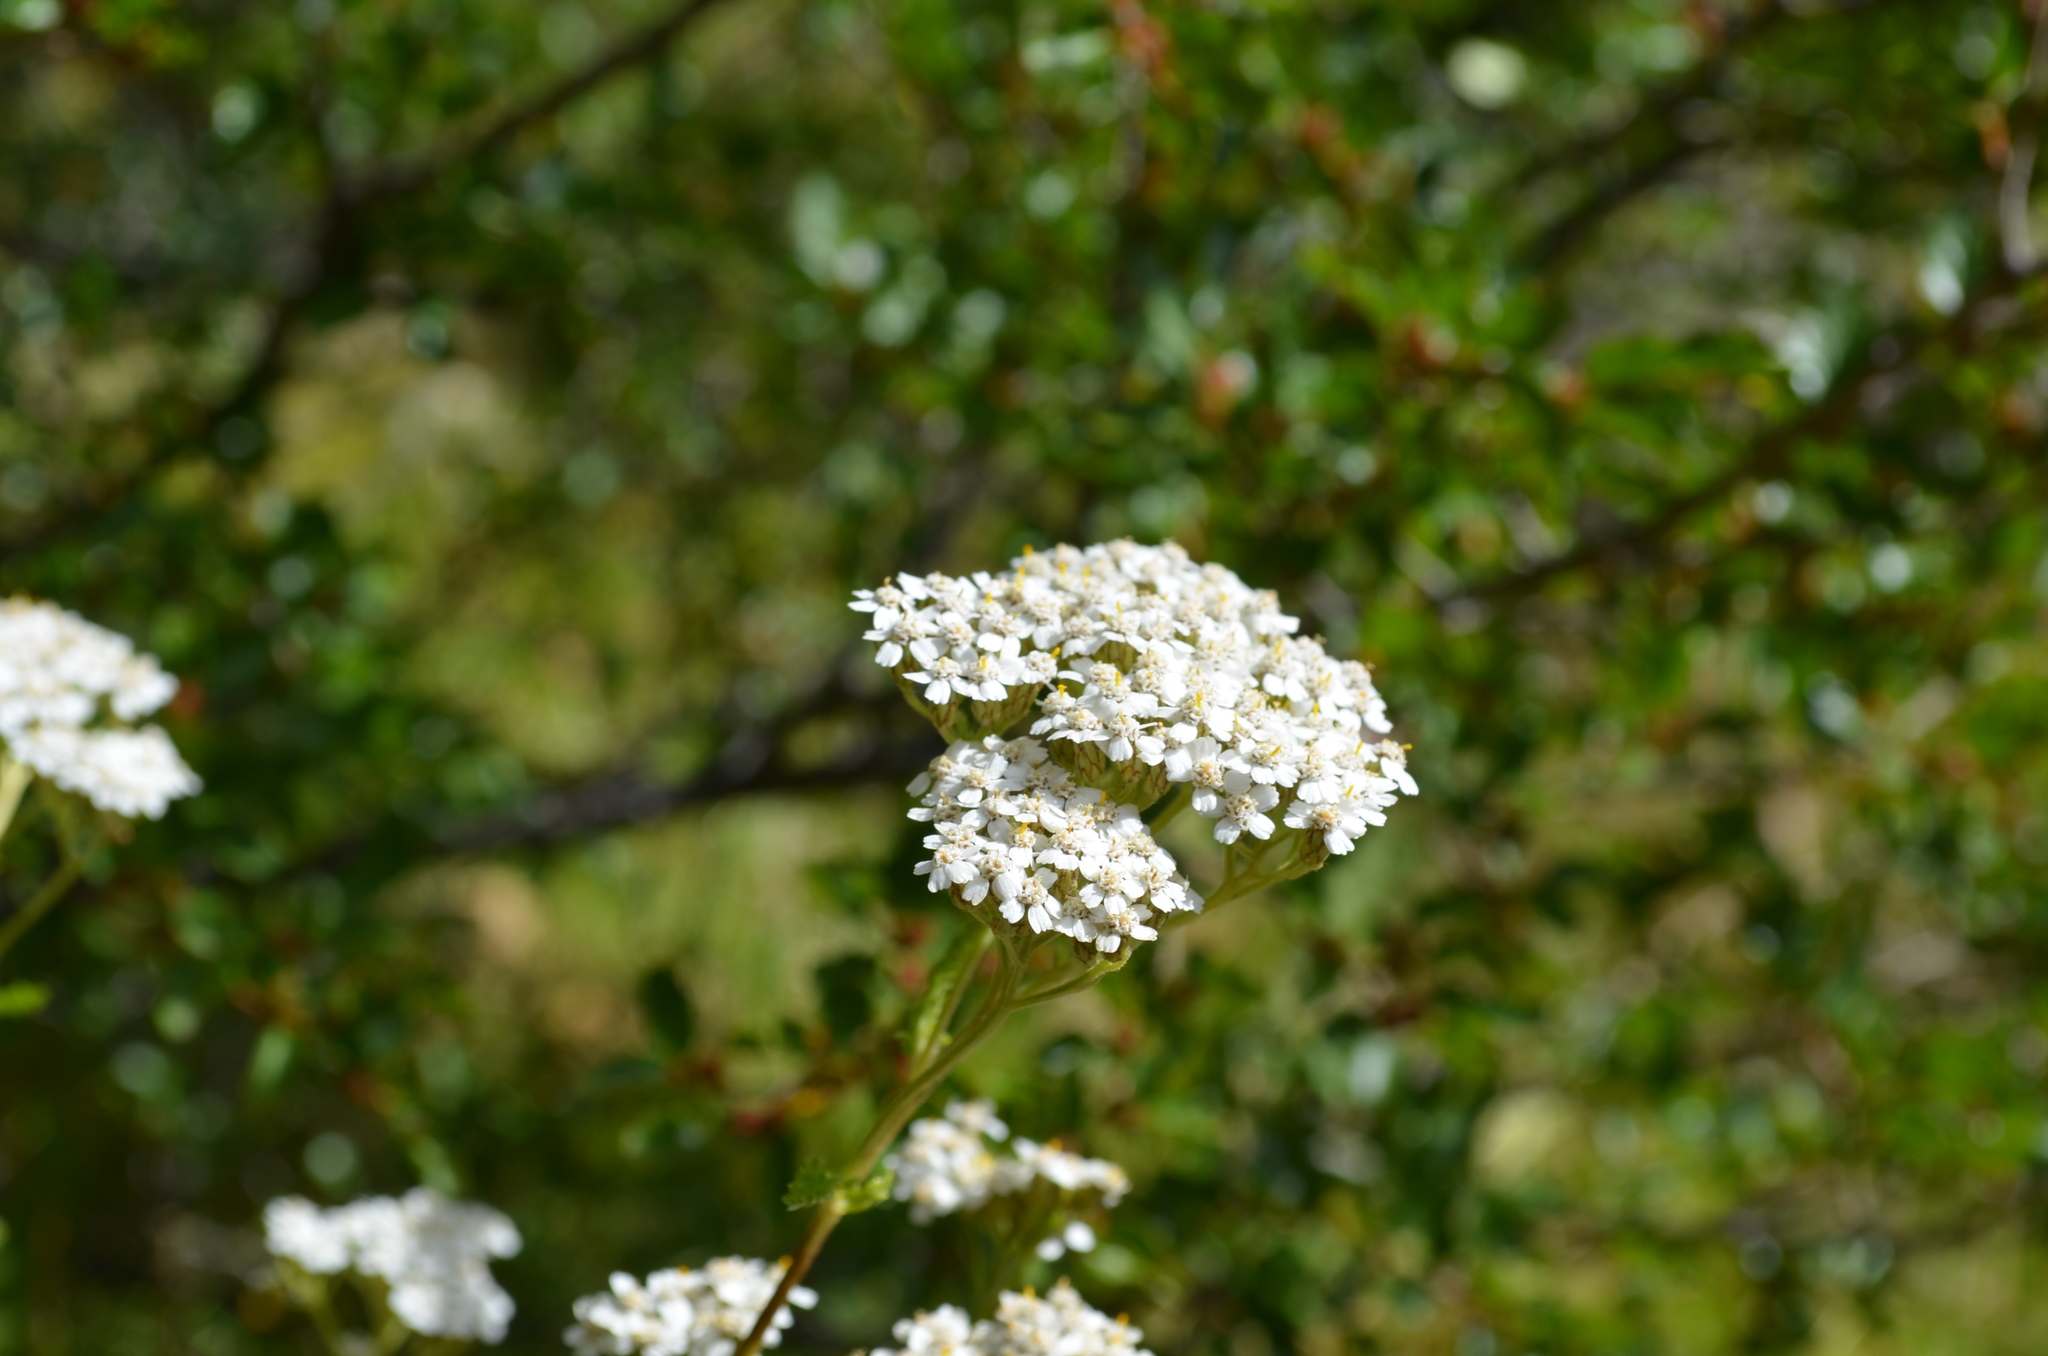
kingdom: Plantae
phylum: Tracheophyta
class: Magnoliopsida
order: Asterales
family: Asteraceae
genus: Achillea
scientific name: Achillea millefolium
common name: Yarrow
